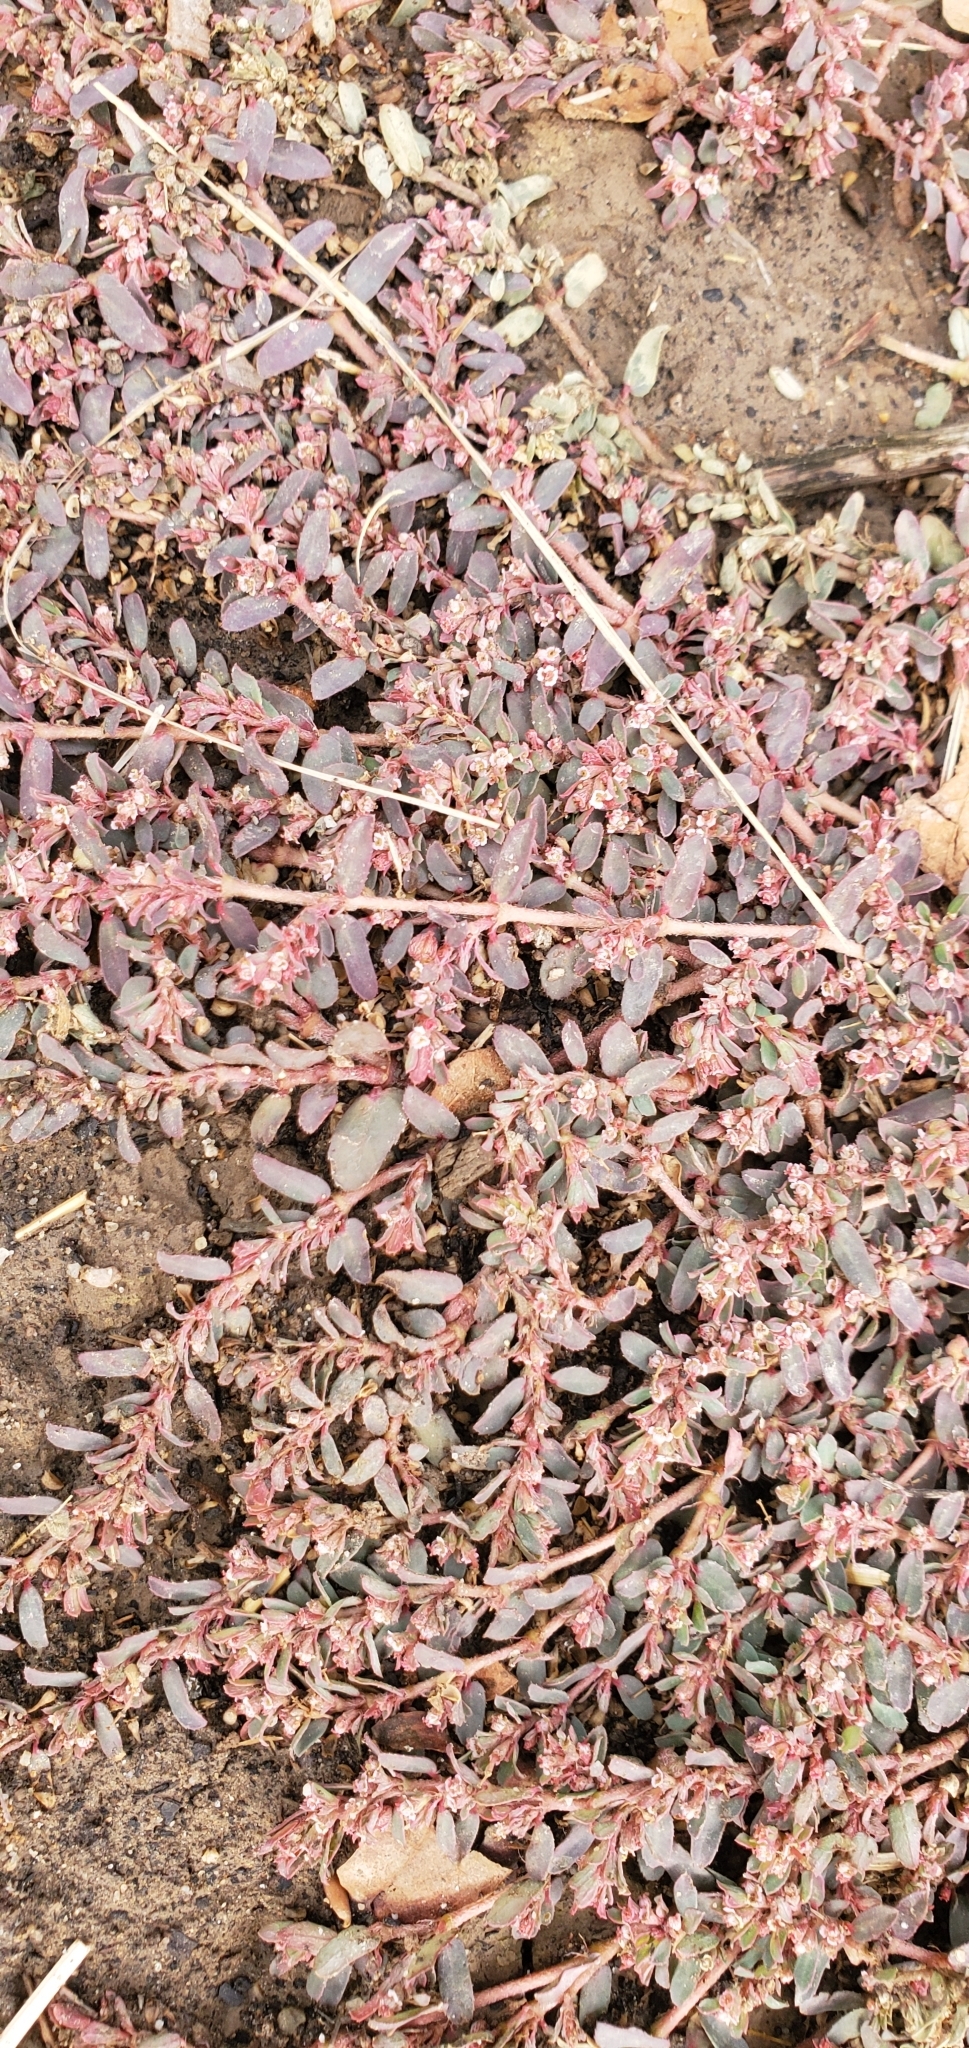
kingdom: Plantae
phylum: Tracheophyta
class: Magnoliopsida
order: Malpighiales
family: Euphorbiaceae
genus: Euphorbia
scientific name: Euphorbia maculata
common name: Spotted spurge
